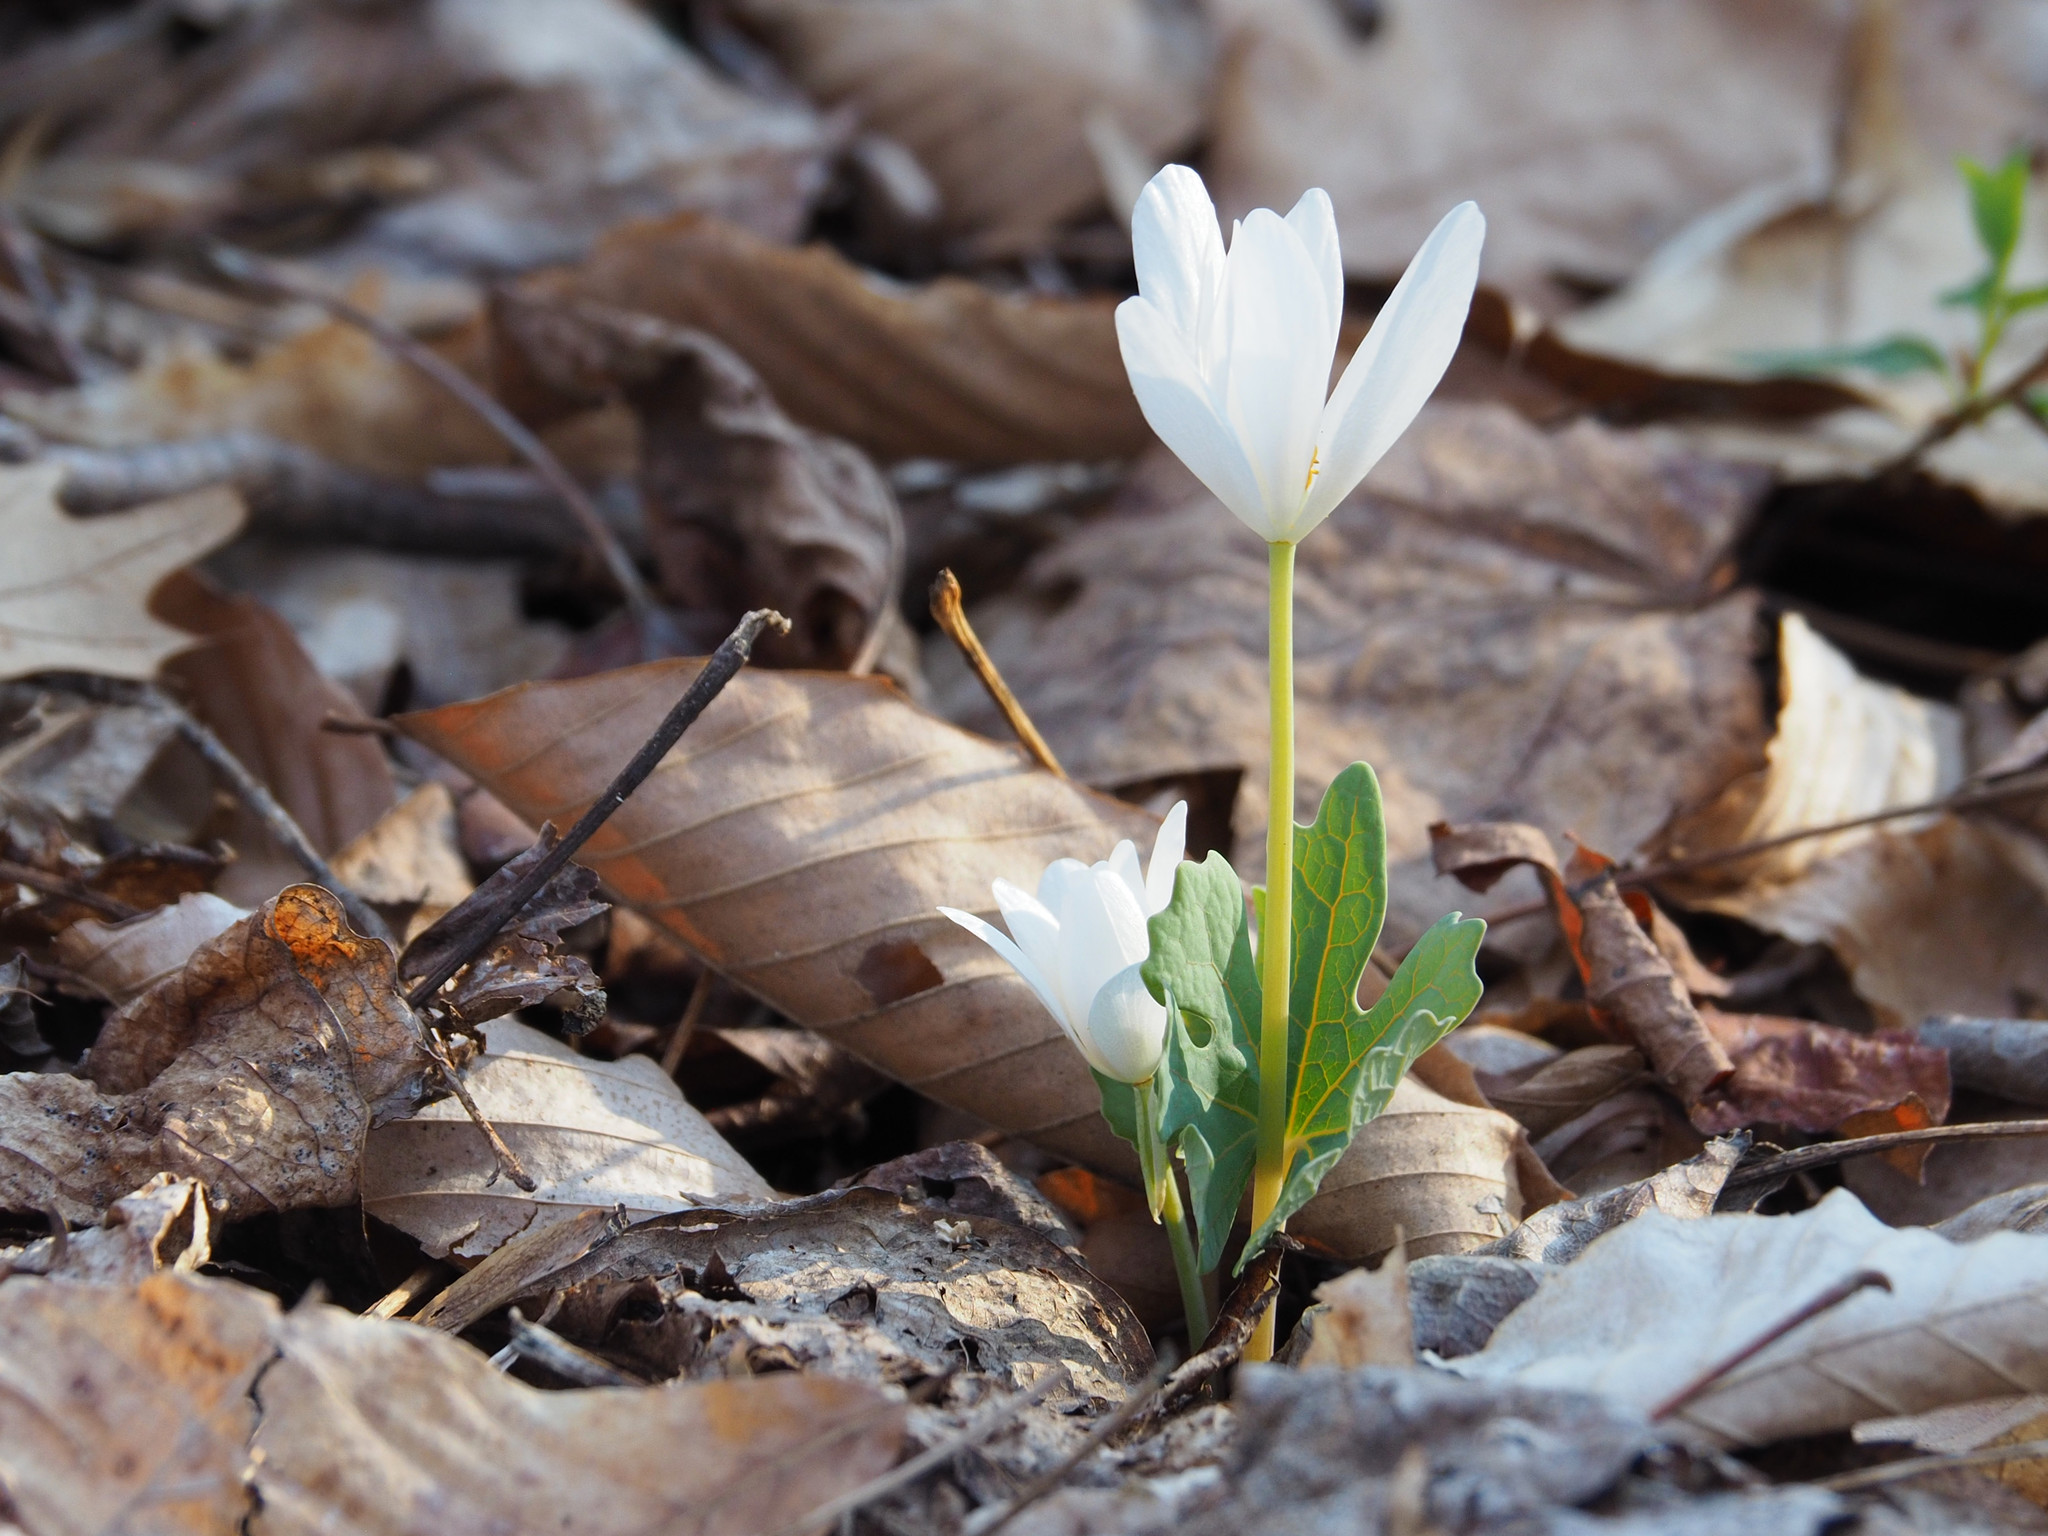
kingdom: Plantae
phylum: Tracheophyta
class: Magnoliopsida
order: Ranunculales
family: Papaveraceae
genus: Sanguinaria
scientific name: Sanguinaria canadensis
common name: Bloodroot
